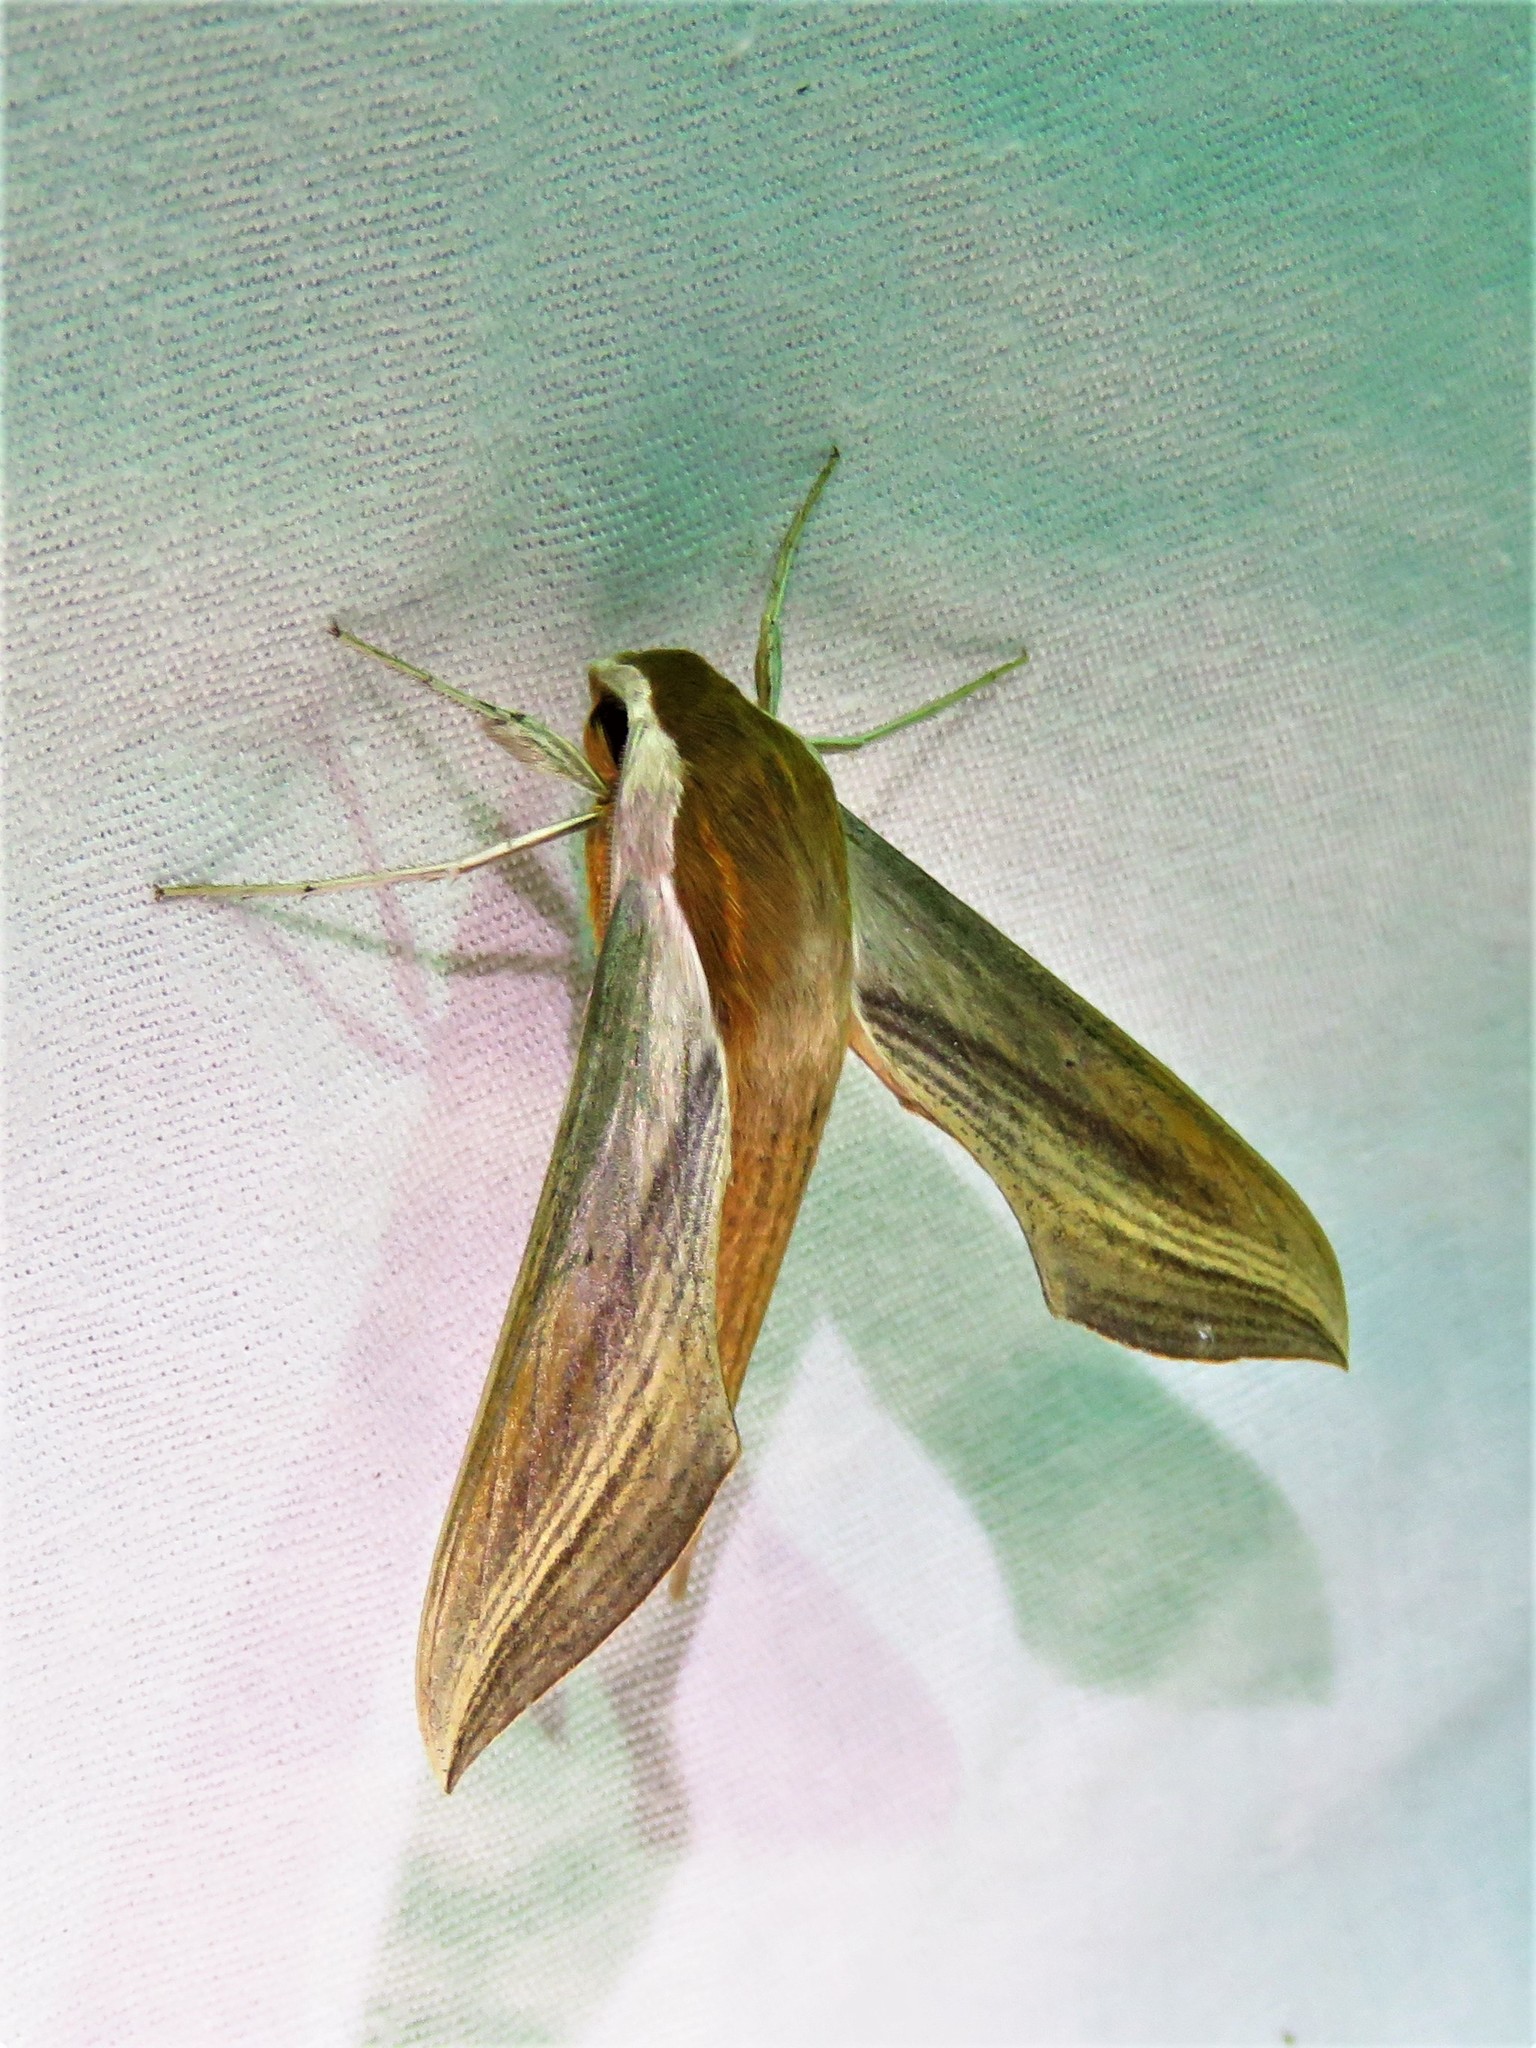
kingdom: Animalia
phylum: Arthropoda
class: Insecta
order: Lepidoptera
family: Sphingidae
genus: Xylophanes
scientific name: Xylophanes tersa
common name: Tersa sphinx
